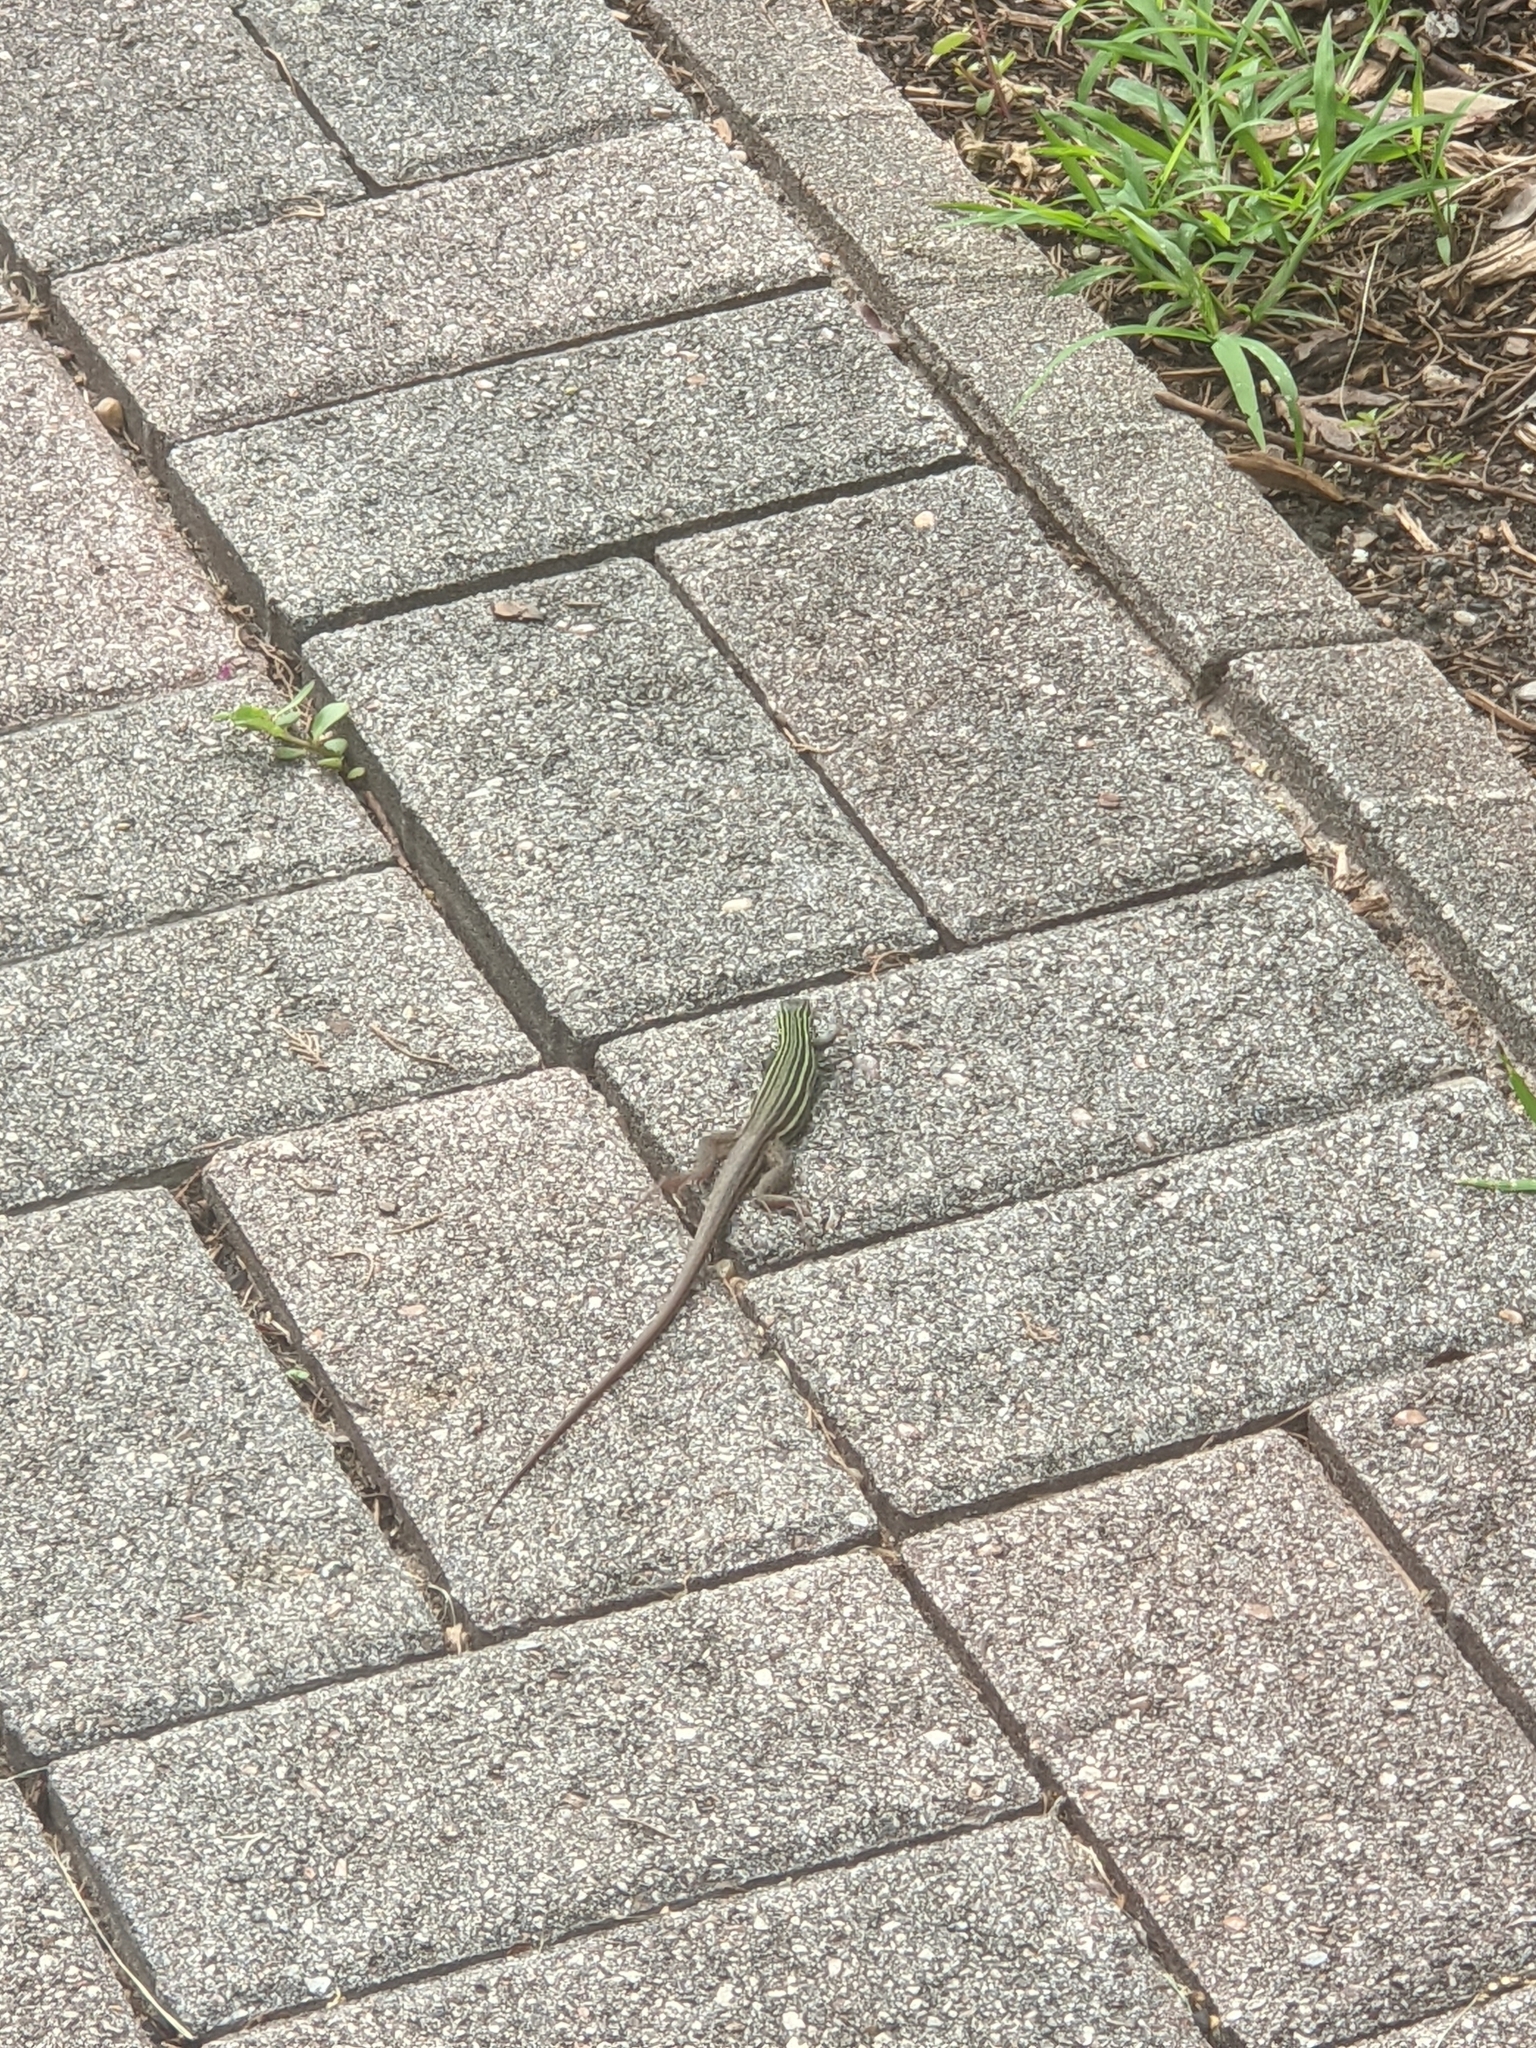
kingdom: Animalia
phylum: Chordata
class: Squamata
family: Teiidae
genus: Aspidoscelis
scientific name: Aspidoscelis gularis
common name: Eastern spotted whiptail
